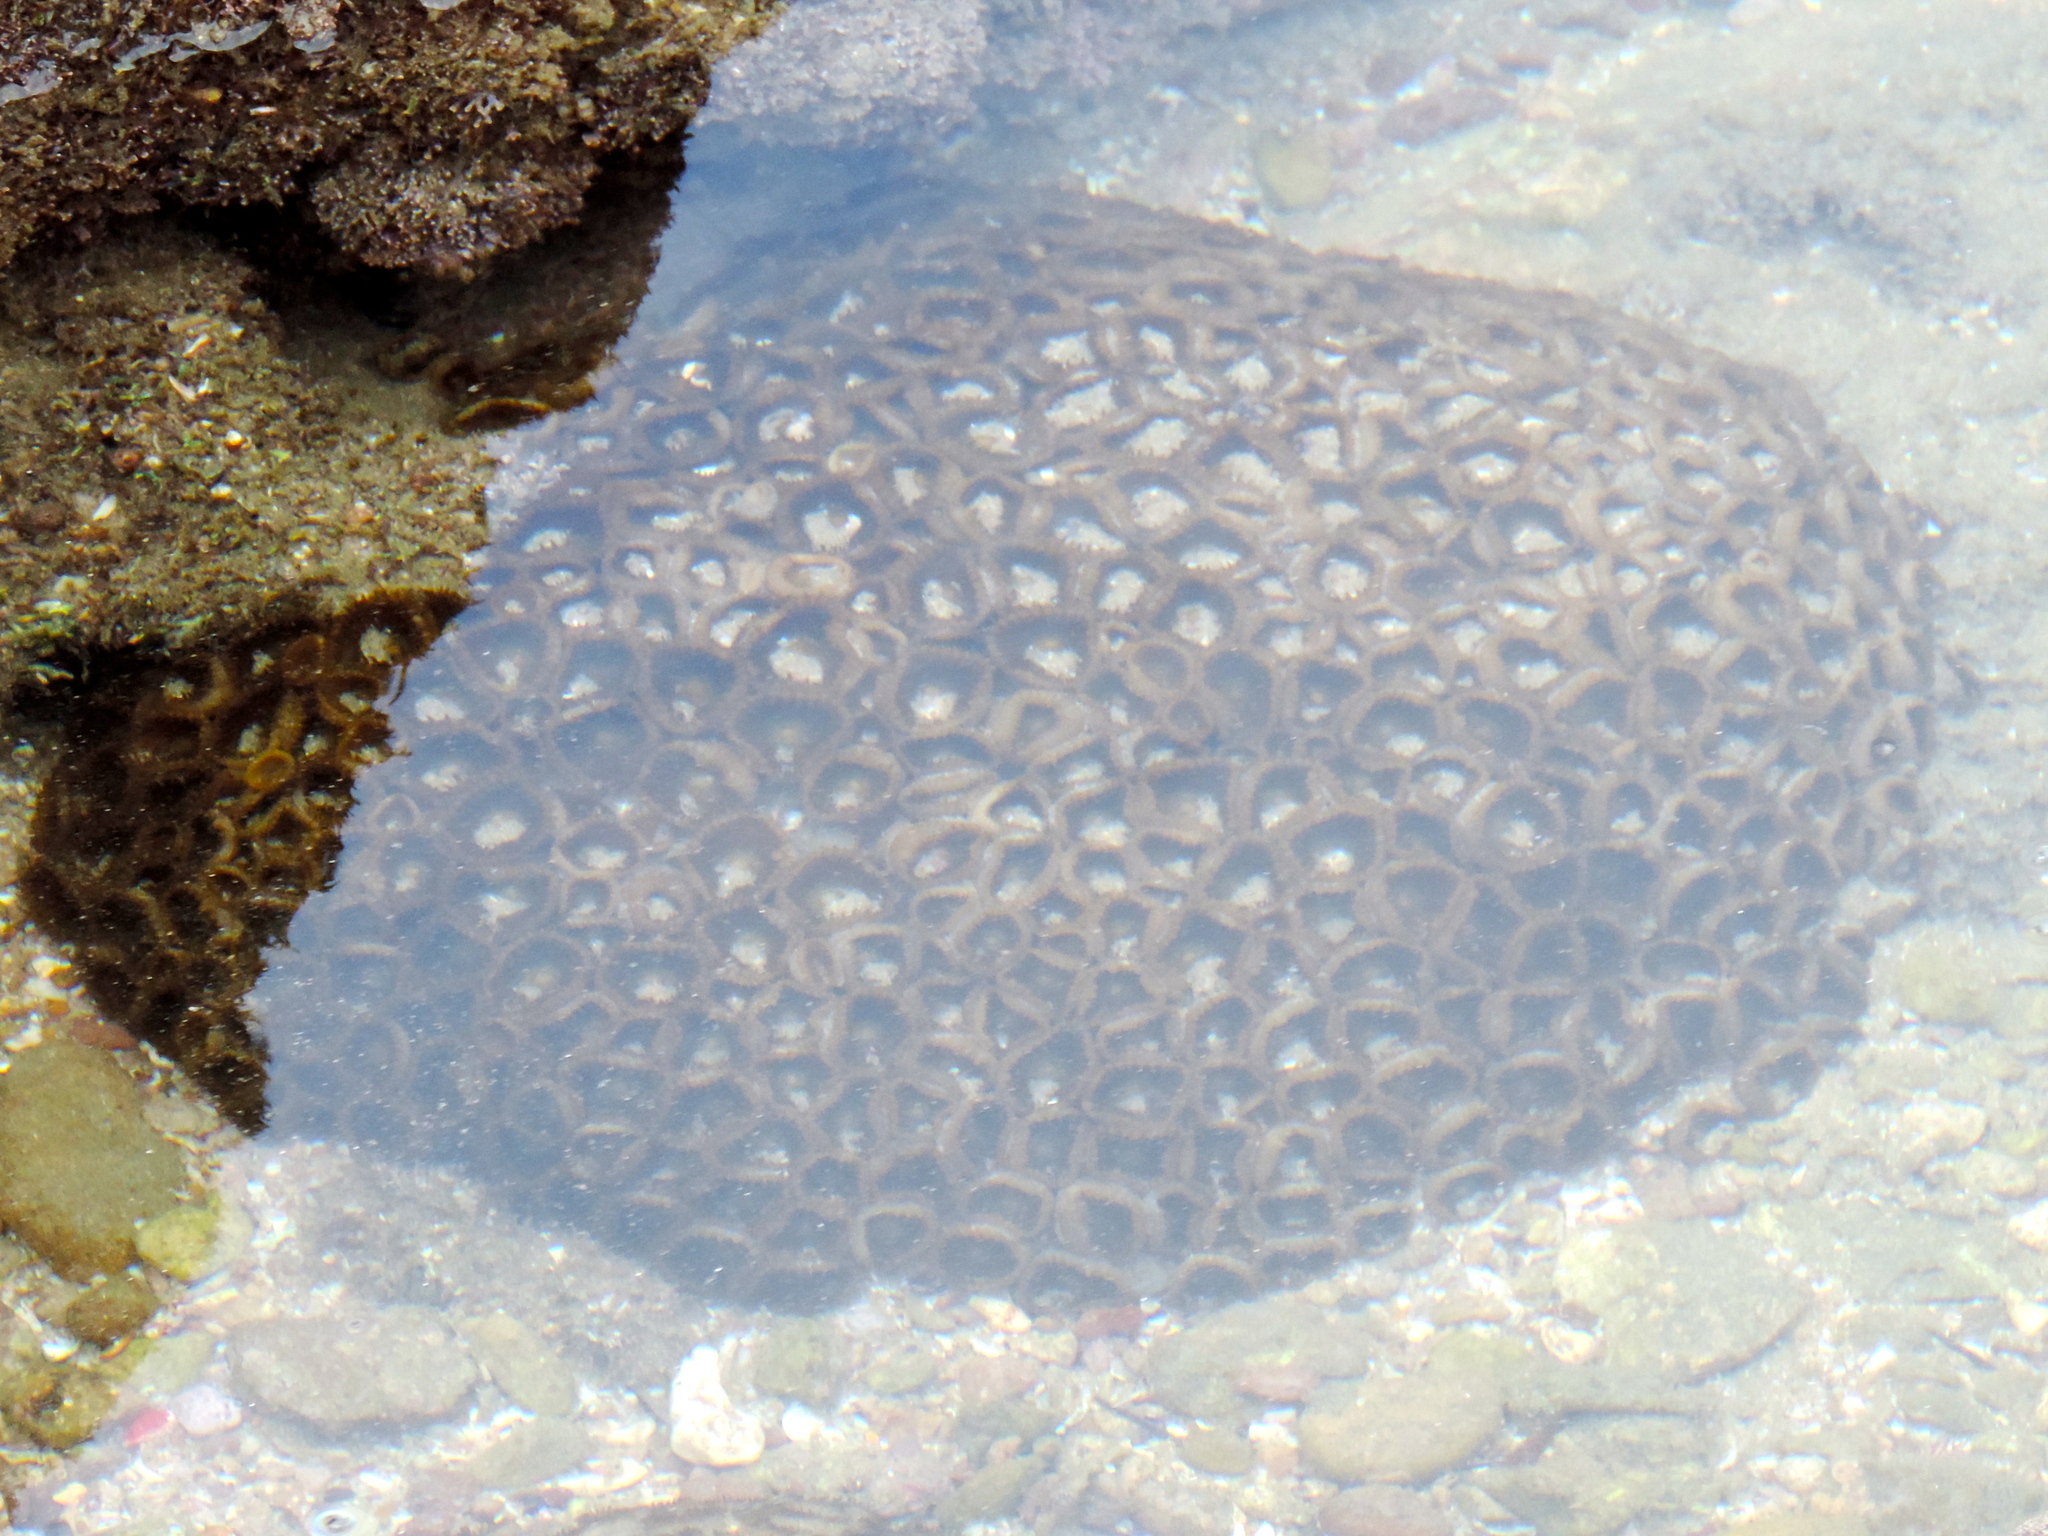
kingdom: Animalia
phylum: Cnidaria
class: Anthozoa
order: Zoantharia
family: Sphenopidae
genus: Palythoa
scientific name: Palythoa mutuki
